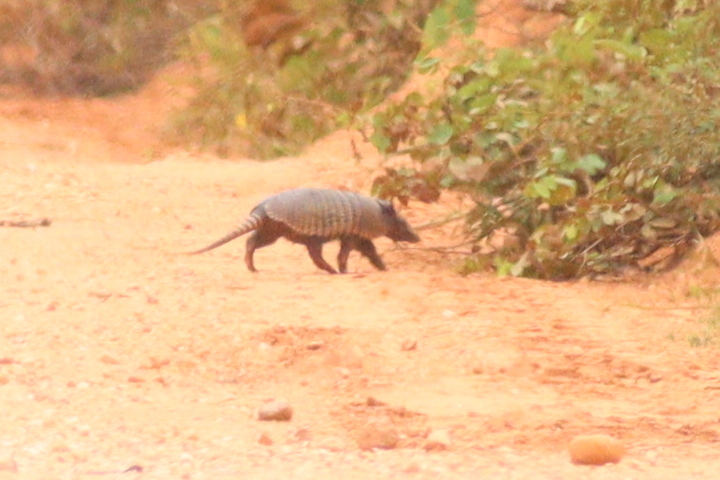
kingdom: Animalia
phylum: Chordata
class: Mammalia
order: Cingulata
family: Dasypodidae
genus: Euphractus
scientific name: Euphractus sexcinctus
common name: Six-banded armadillo
